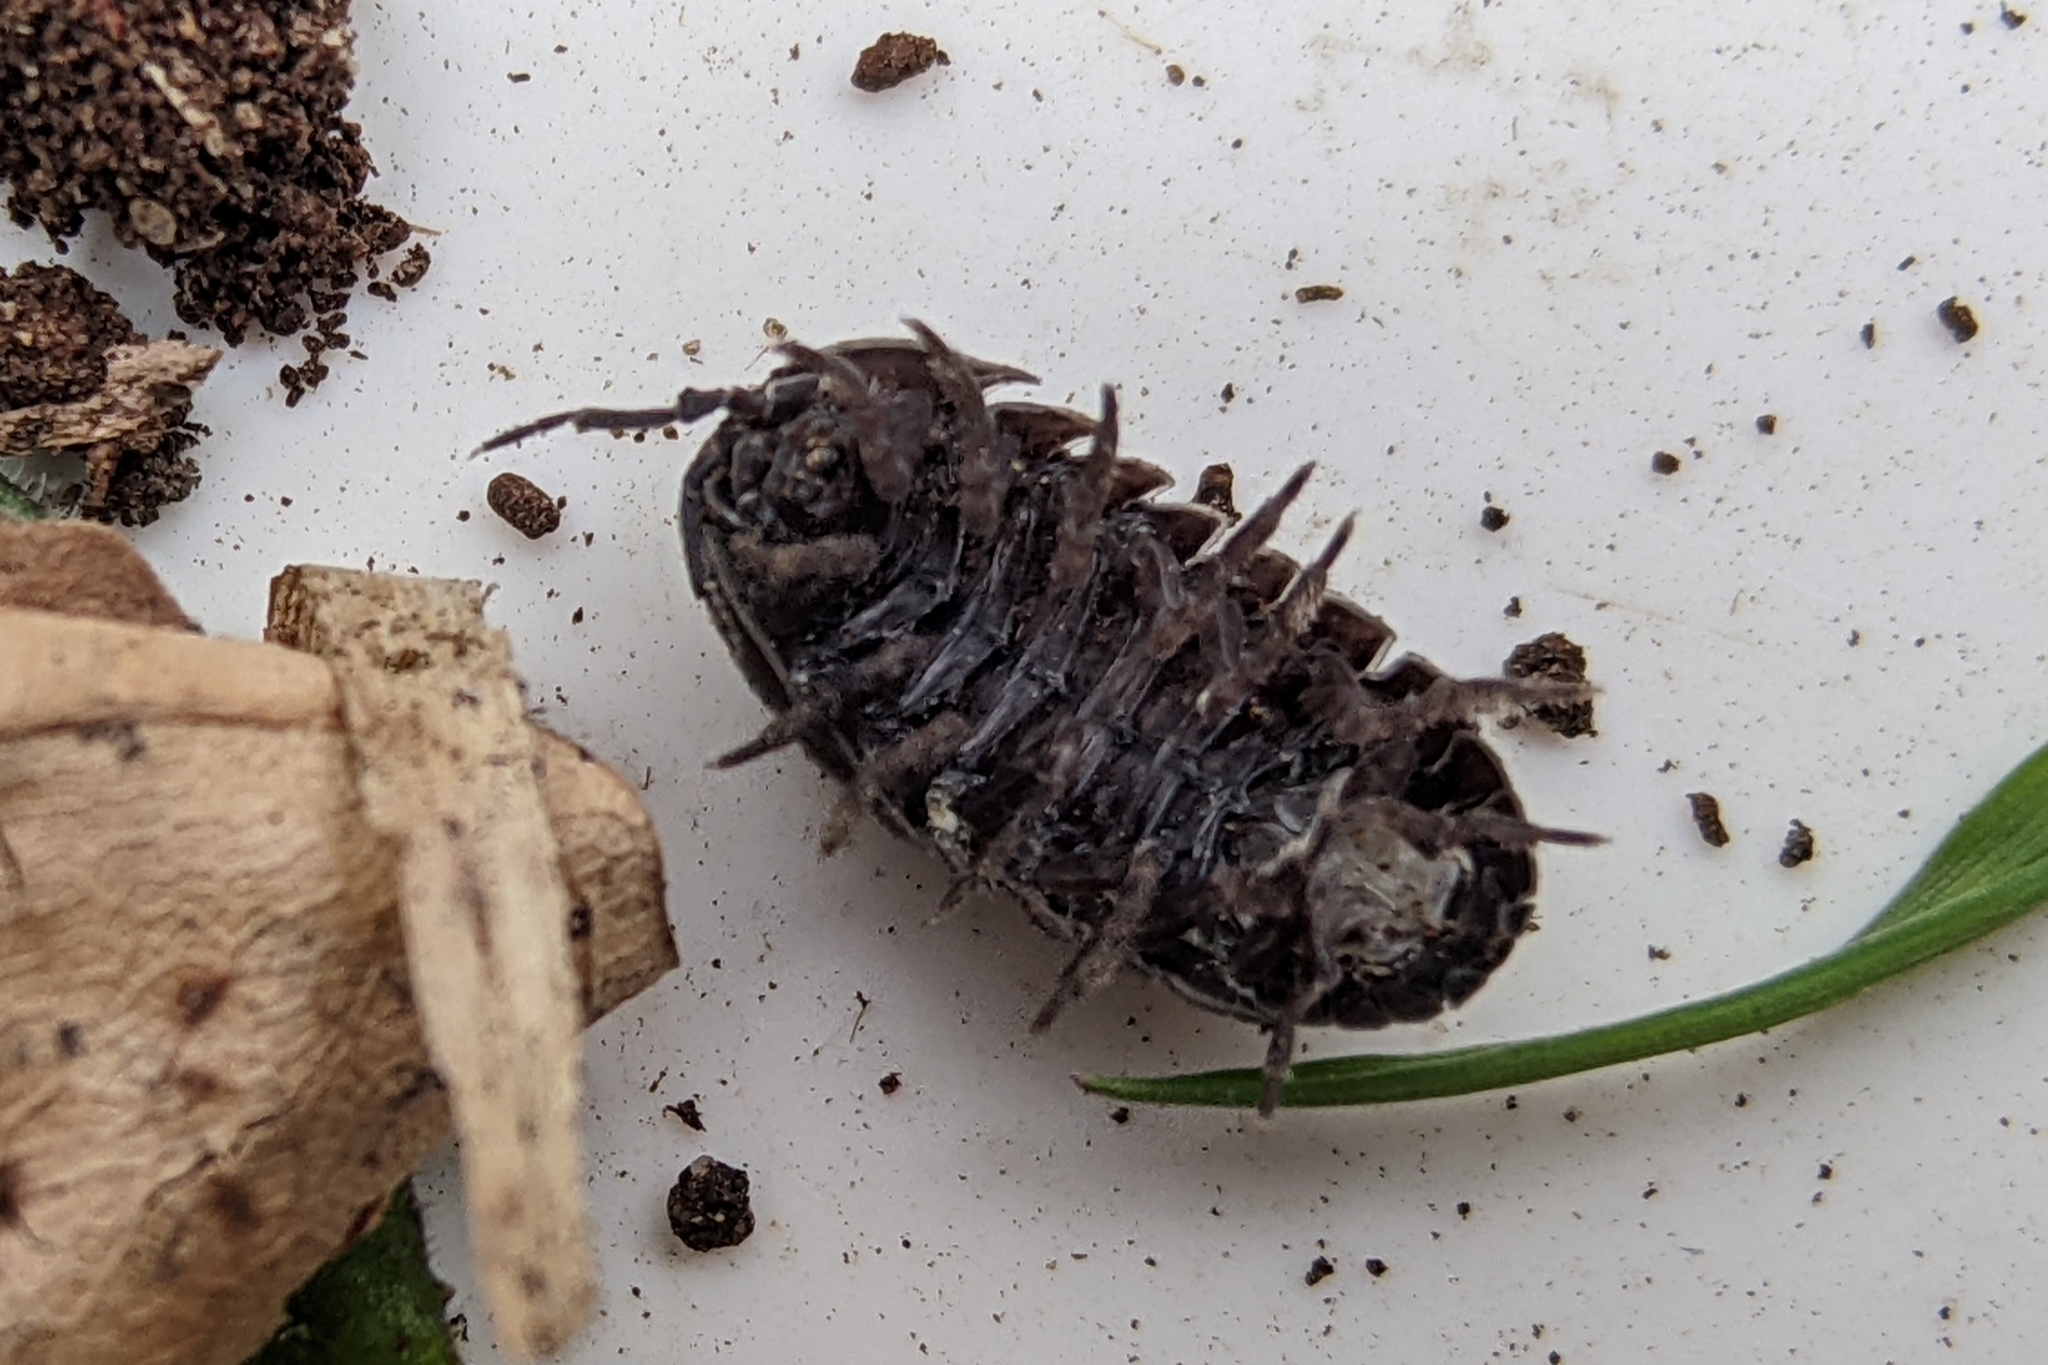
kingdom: Animalia
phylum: Arthropoda
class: Malacostraca
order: Isopoda
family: Armadillidiidae
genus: Armadillidium
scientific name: Armadillidium vulgare
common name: Common pill woodlouse
